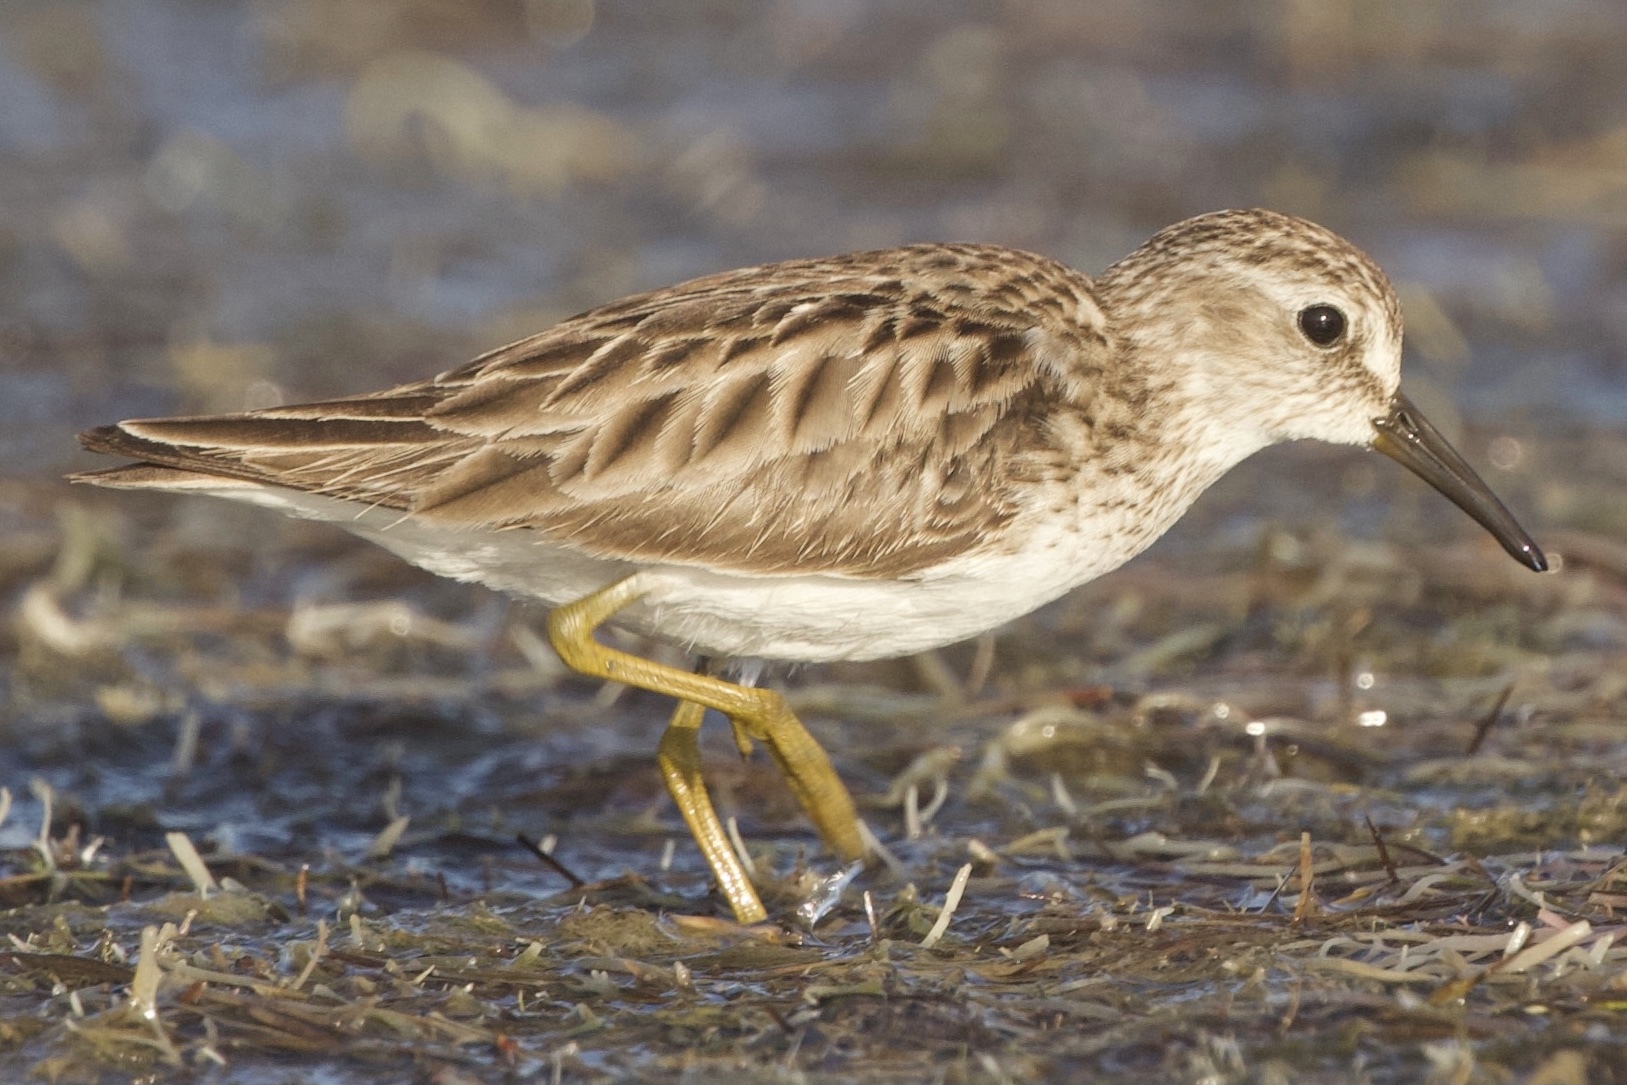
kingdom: Animalia
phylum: Chordata
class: Aves
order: Charadriiformes
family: Scolopacidae
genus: Calidris
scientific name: Calidris minutilla
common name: Least sandpiper
